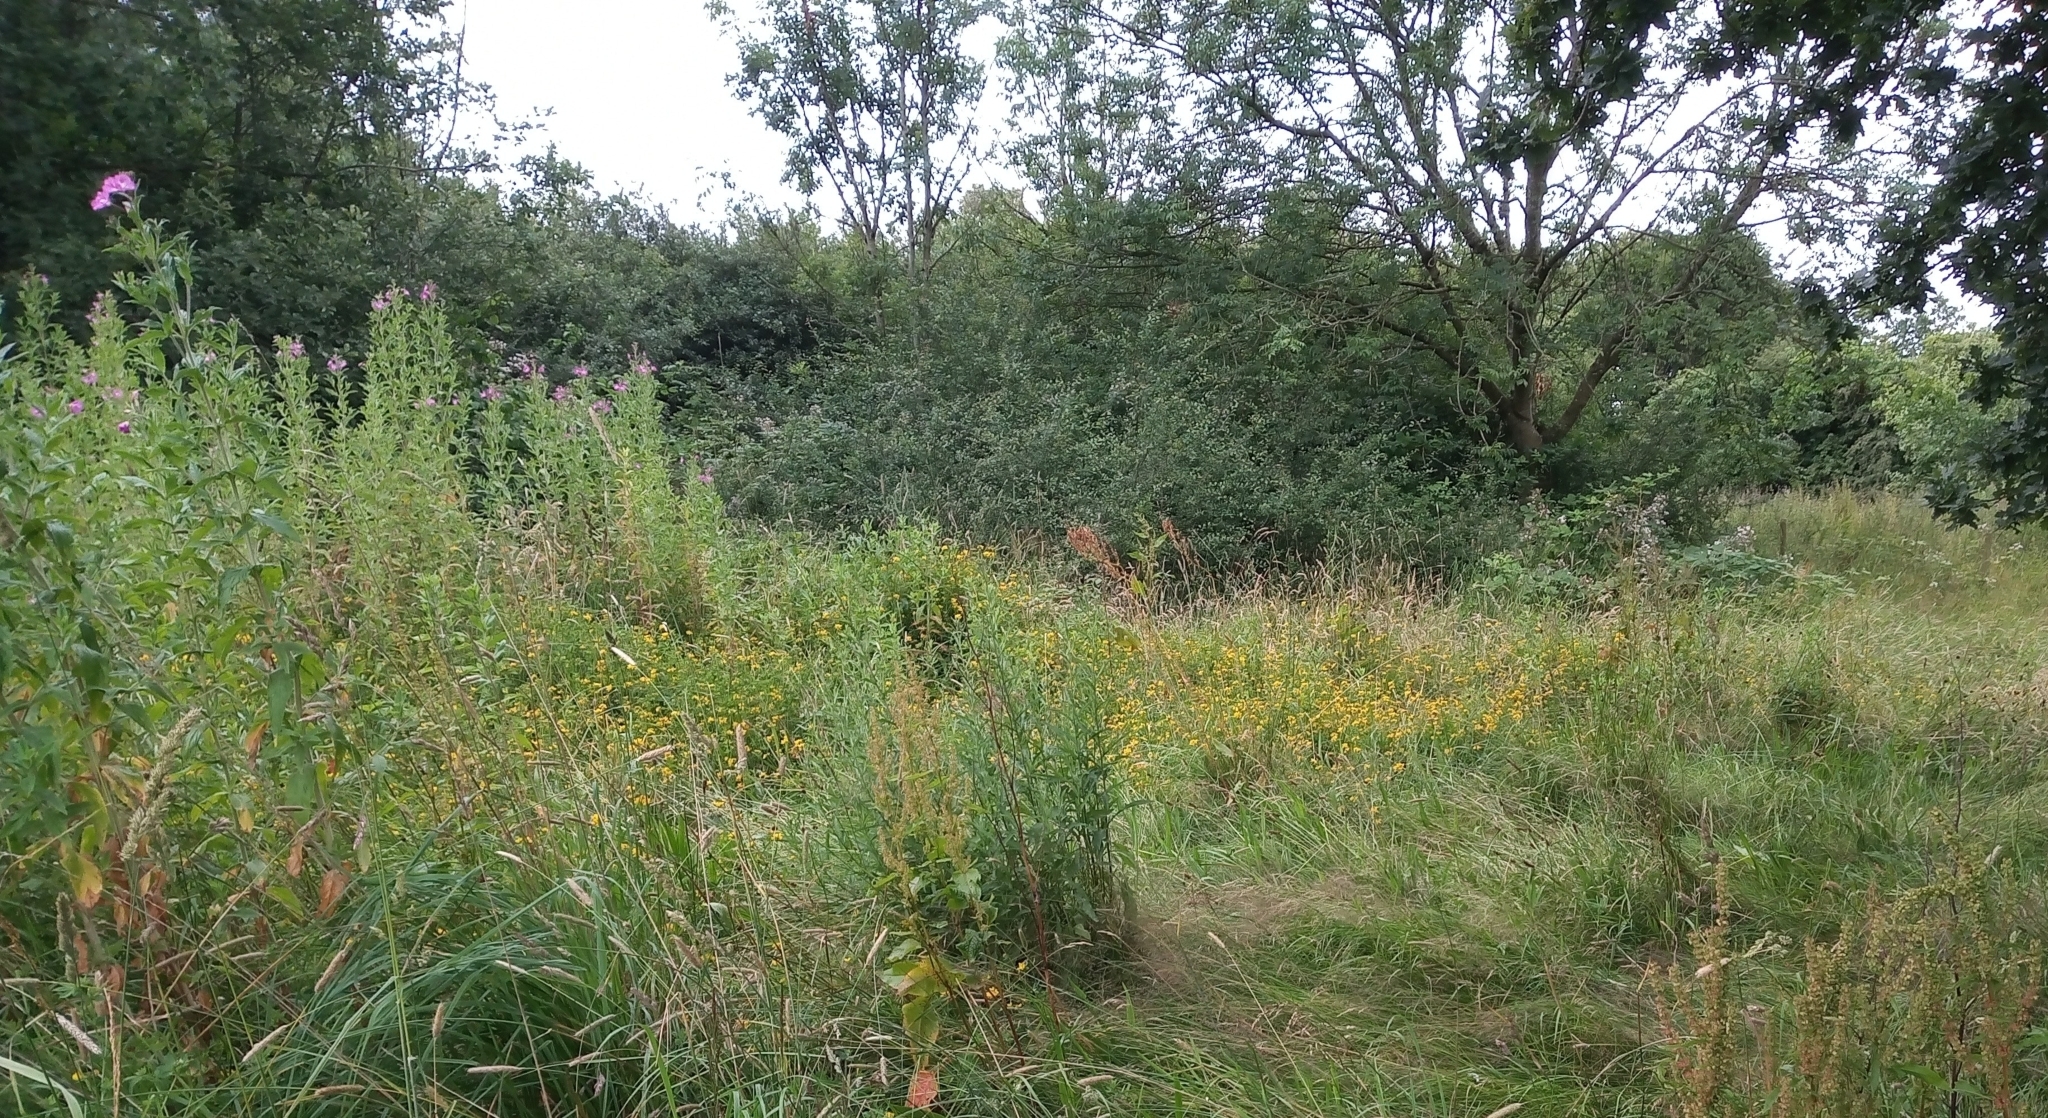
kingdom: Plantae
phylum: Tracheophyta
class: Magnoliopsida
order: Fabales
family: Fabaceae
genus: Lotus
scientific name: Lotus pedunculatus
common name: Greater birdsfoot-trefoil
